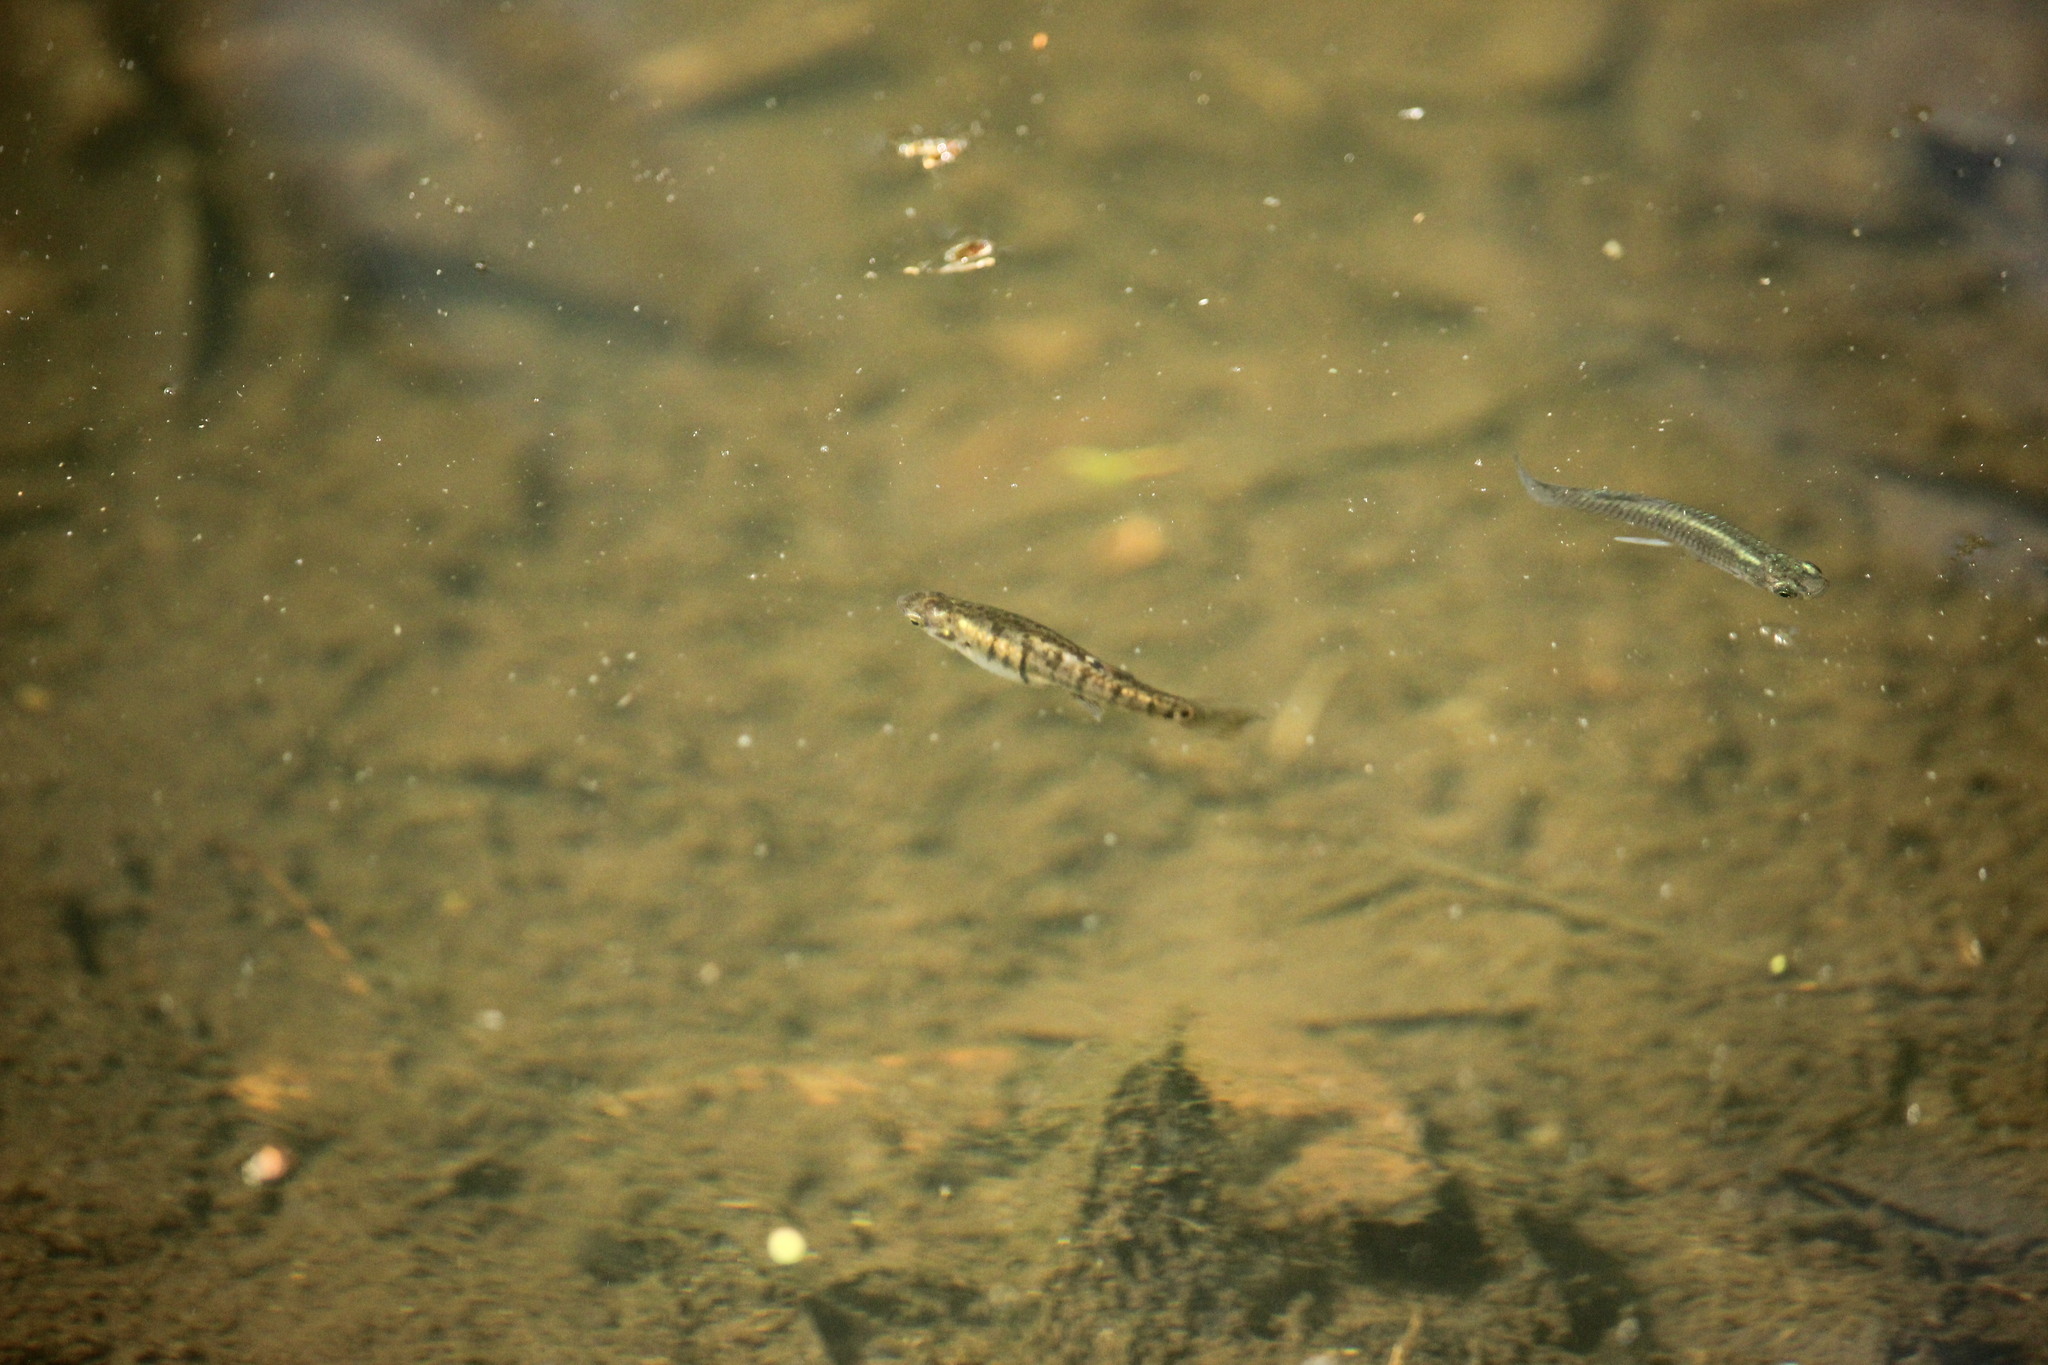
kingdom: Animalia
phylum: Chordata
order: Cyprinodontiformes
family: Poeciliidae
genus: Heterandria
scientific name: Heterandria formosa
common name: Least killifish
